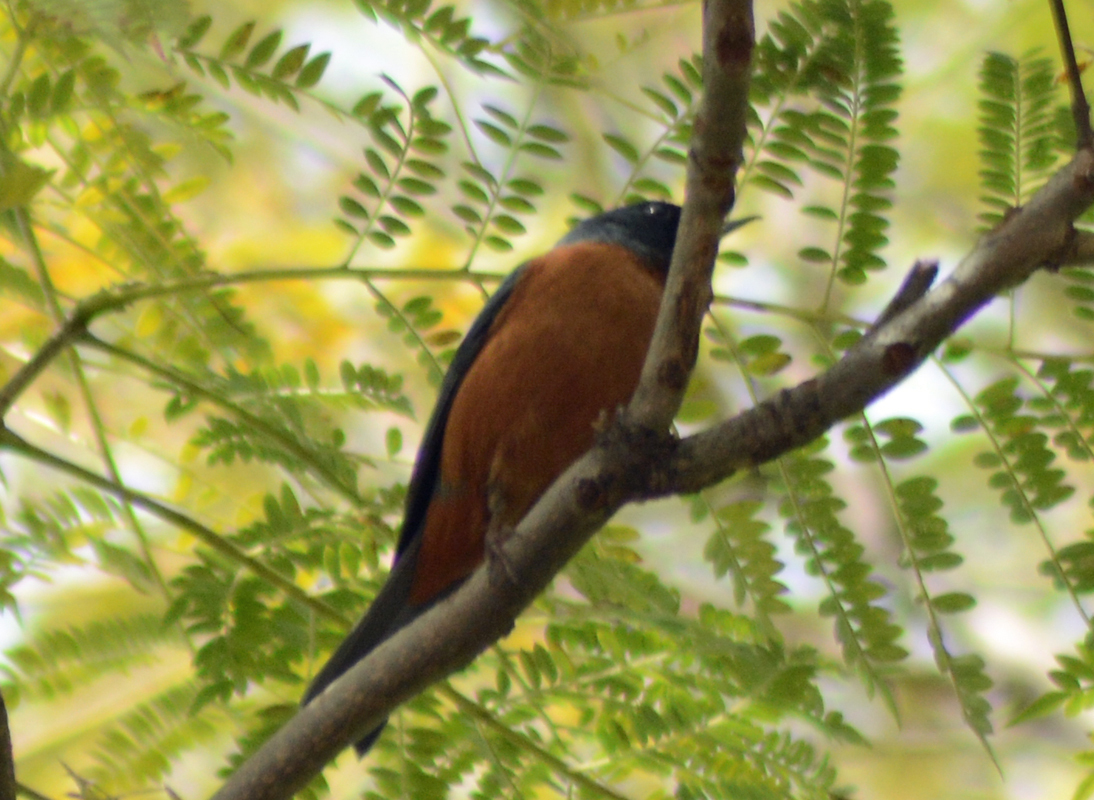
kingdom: Animalia
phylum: Chordata
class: Aves
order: Passeriformes
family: Thraupidae
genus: Diglossa
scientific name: Diglossa baritula
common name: Cinnamon-bellied flowerpiercer
